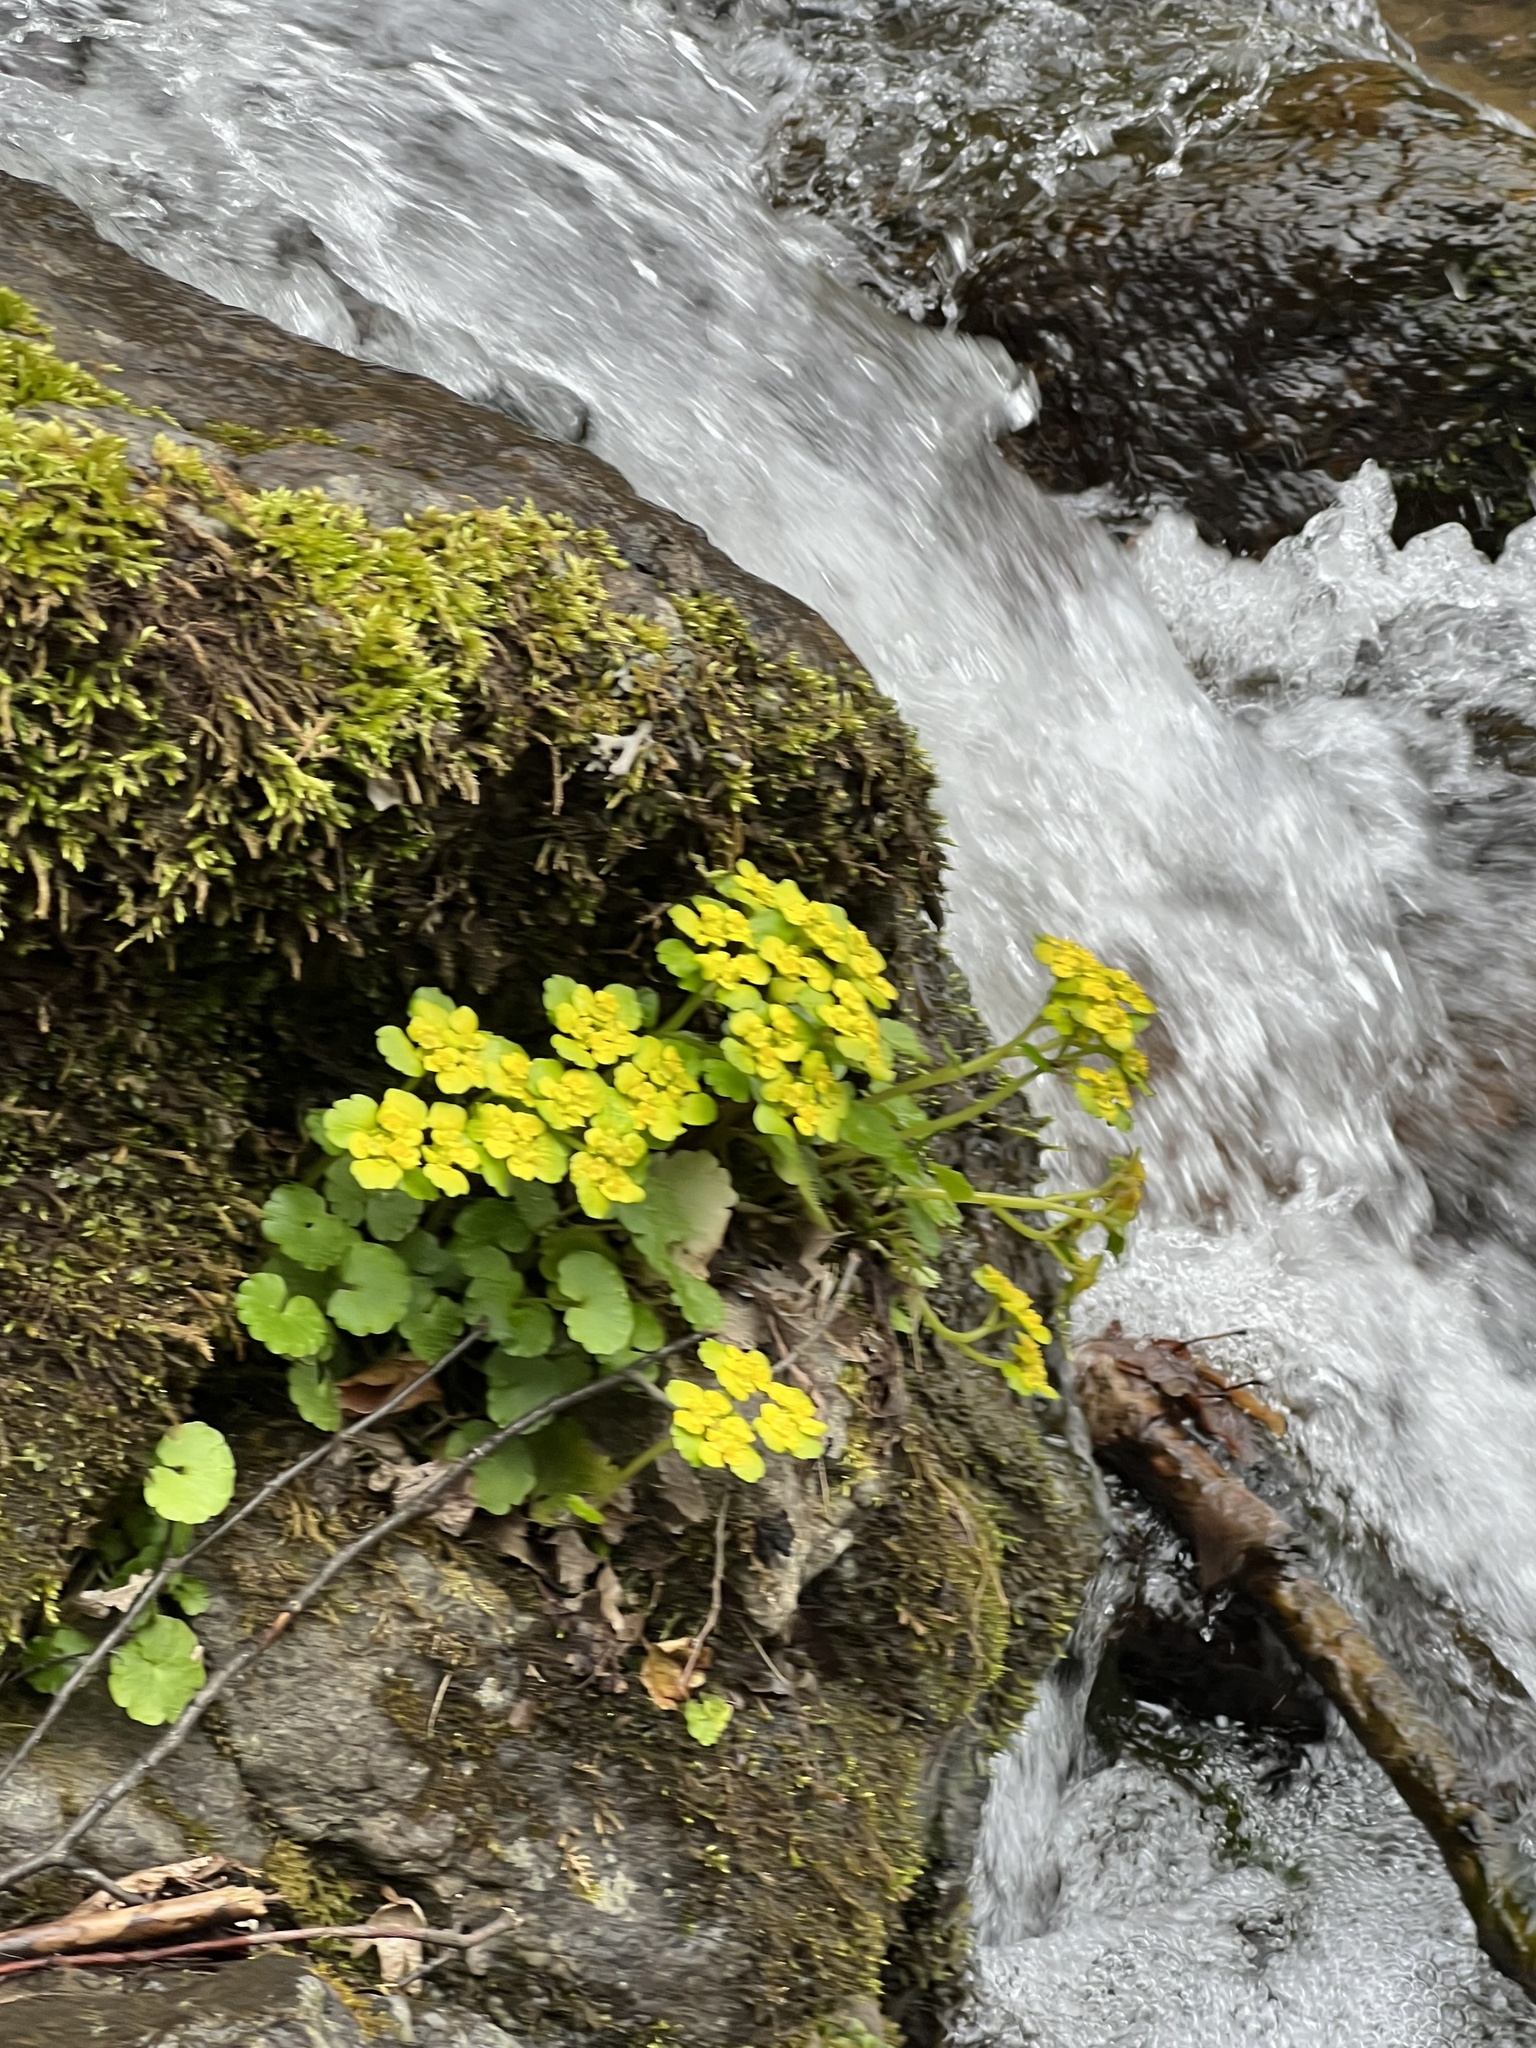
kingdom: Plantae
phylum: Tracheophyta
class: Magnoliopsida
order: Saxifragales
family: Saxifragaceae
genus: Chrysosplenium
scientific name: Chrysosplenium alternifolium
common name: Alternate-leaved golden-saxifrage
